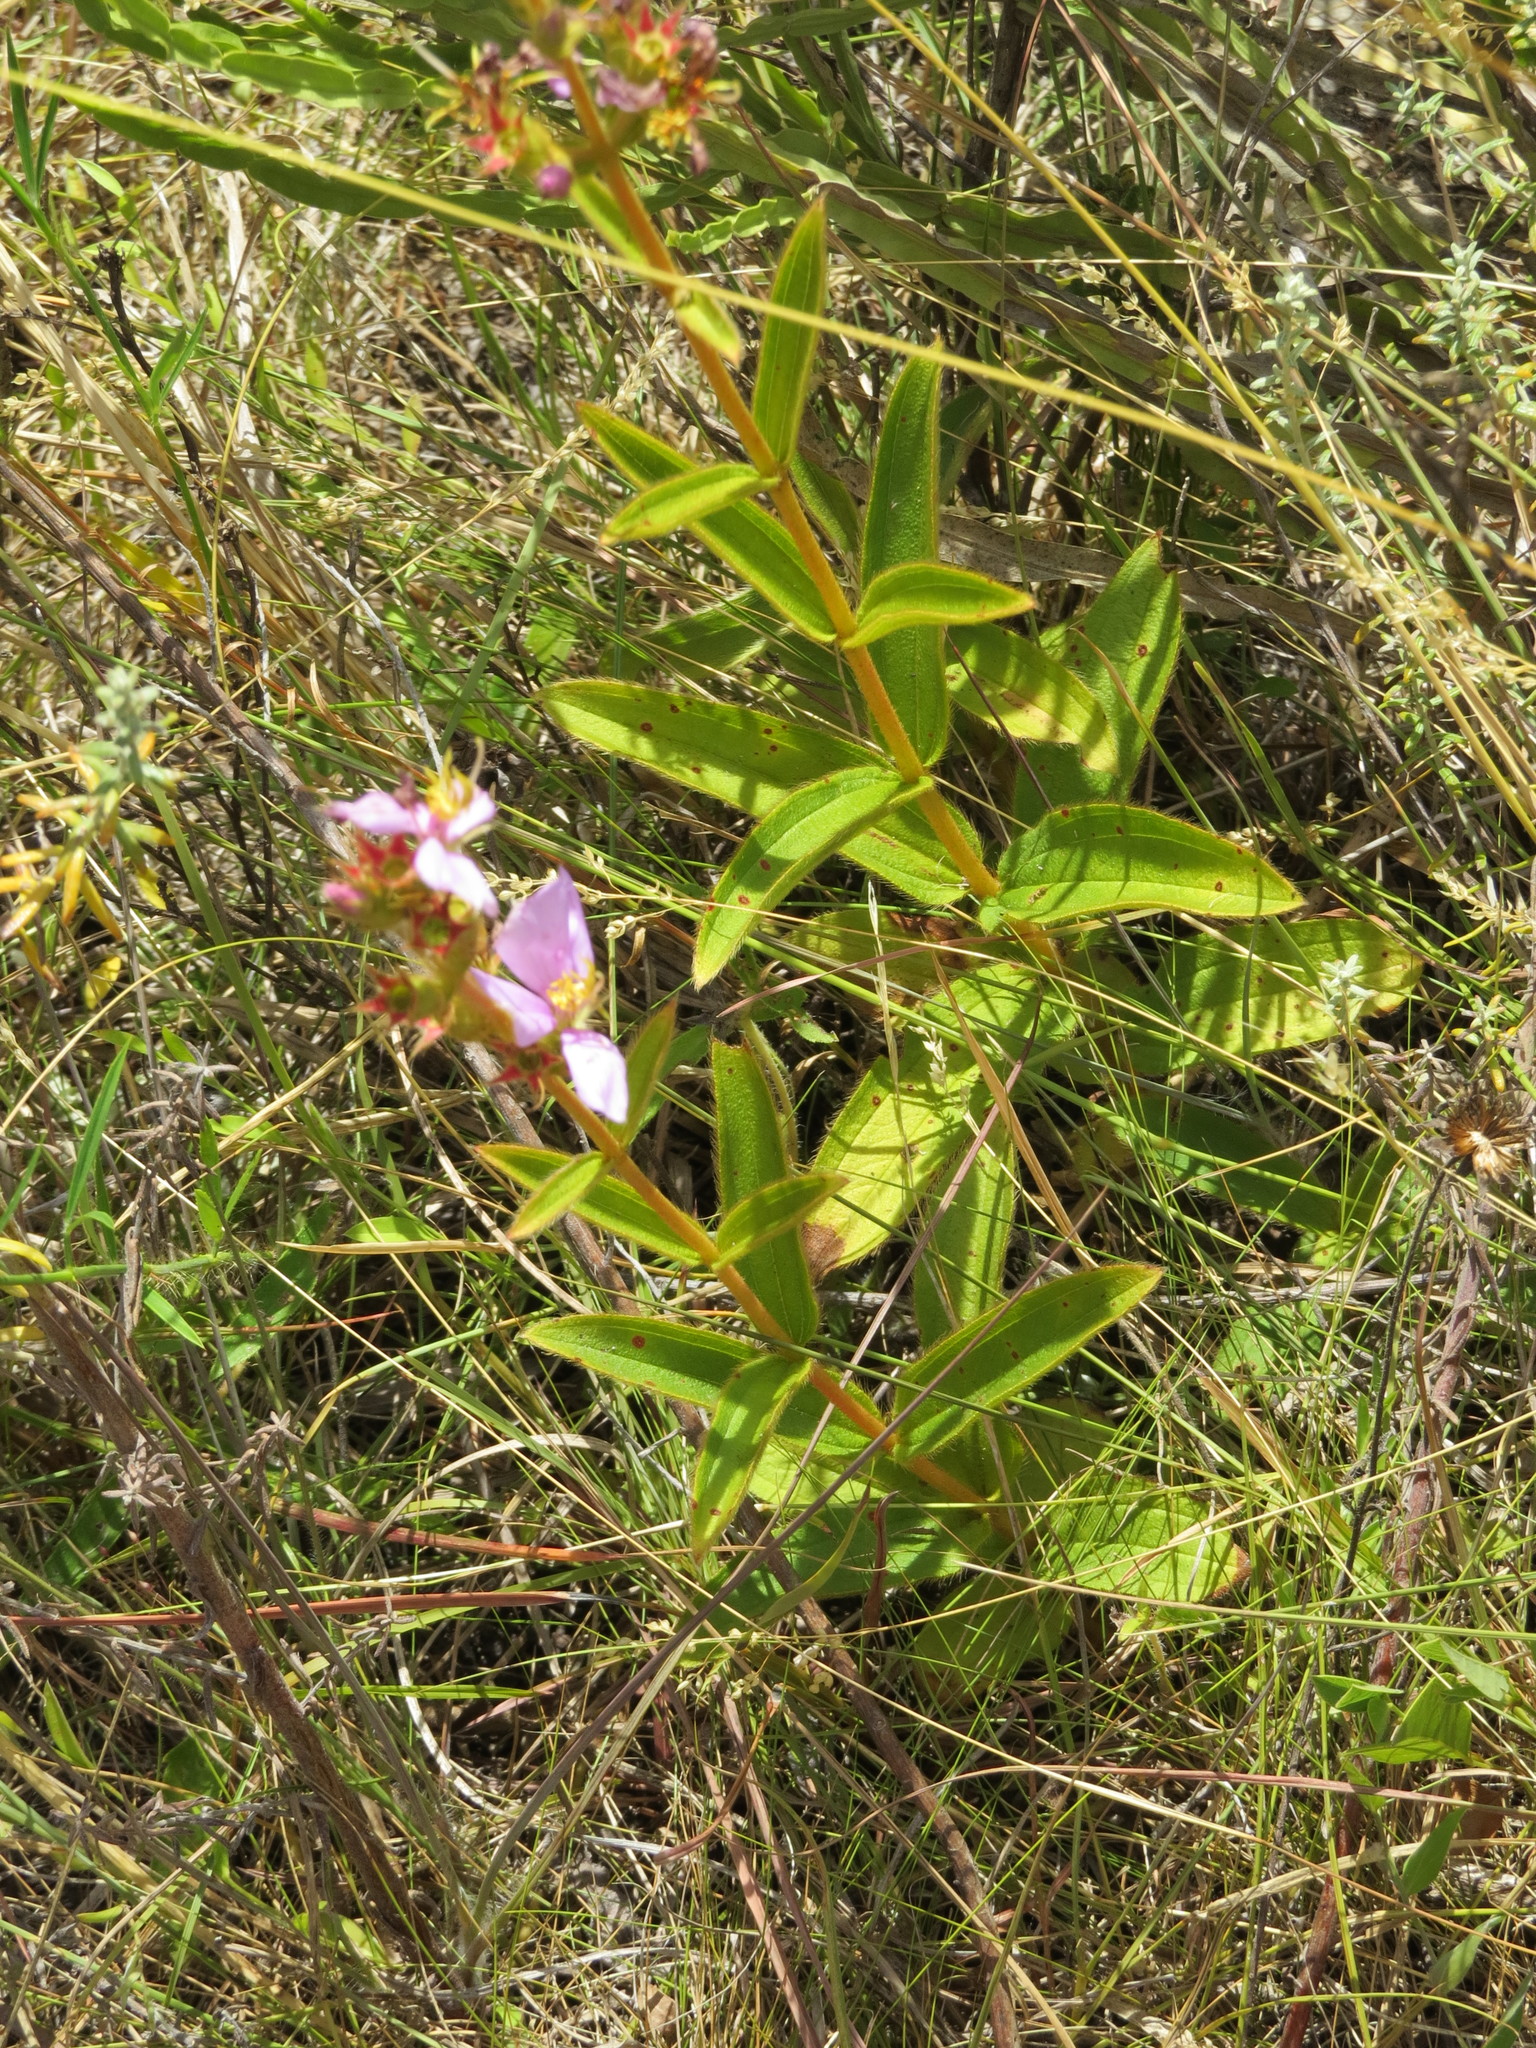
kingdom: Plantae
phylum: Tracheophyta
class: Magnoliopsida
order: Myrtales
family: Melastomataceae
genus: Chaetogastra
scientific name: Chaetogastra gracilis
